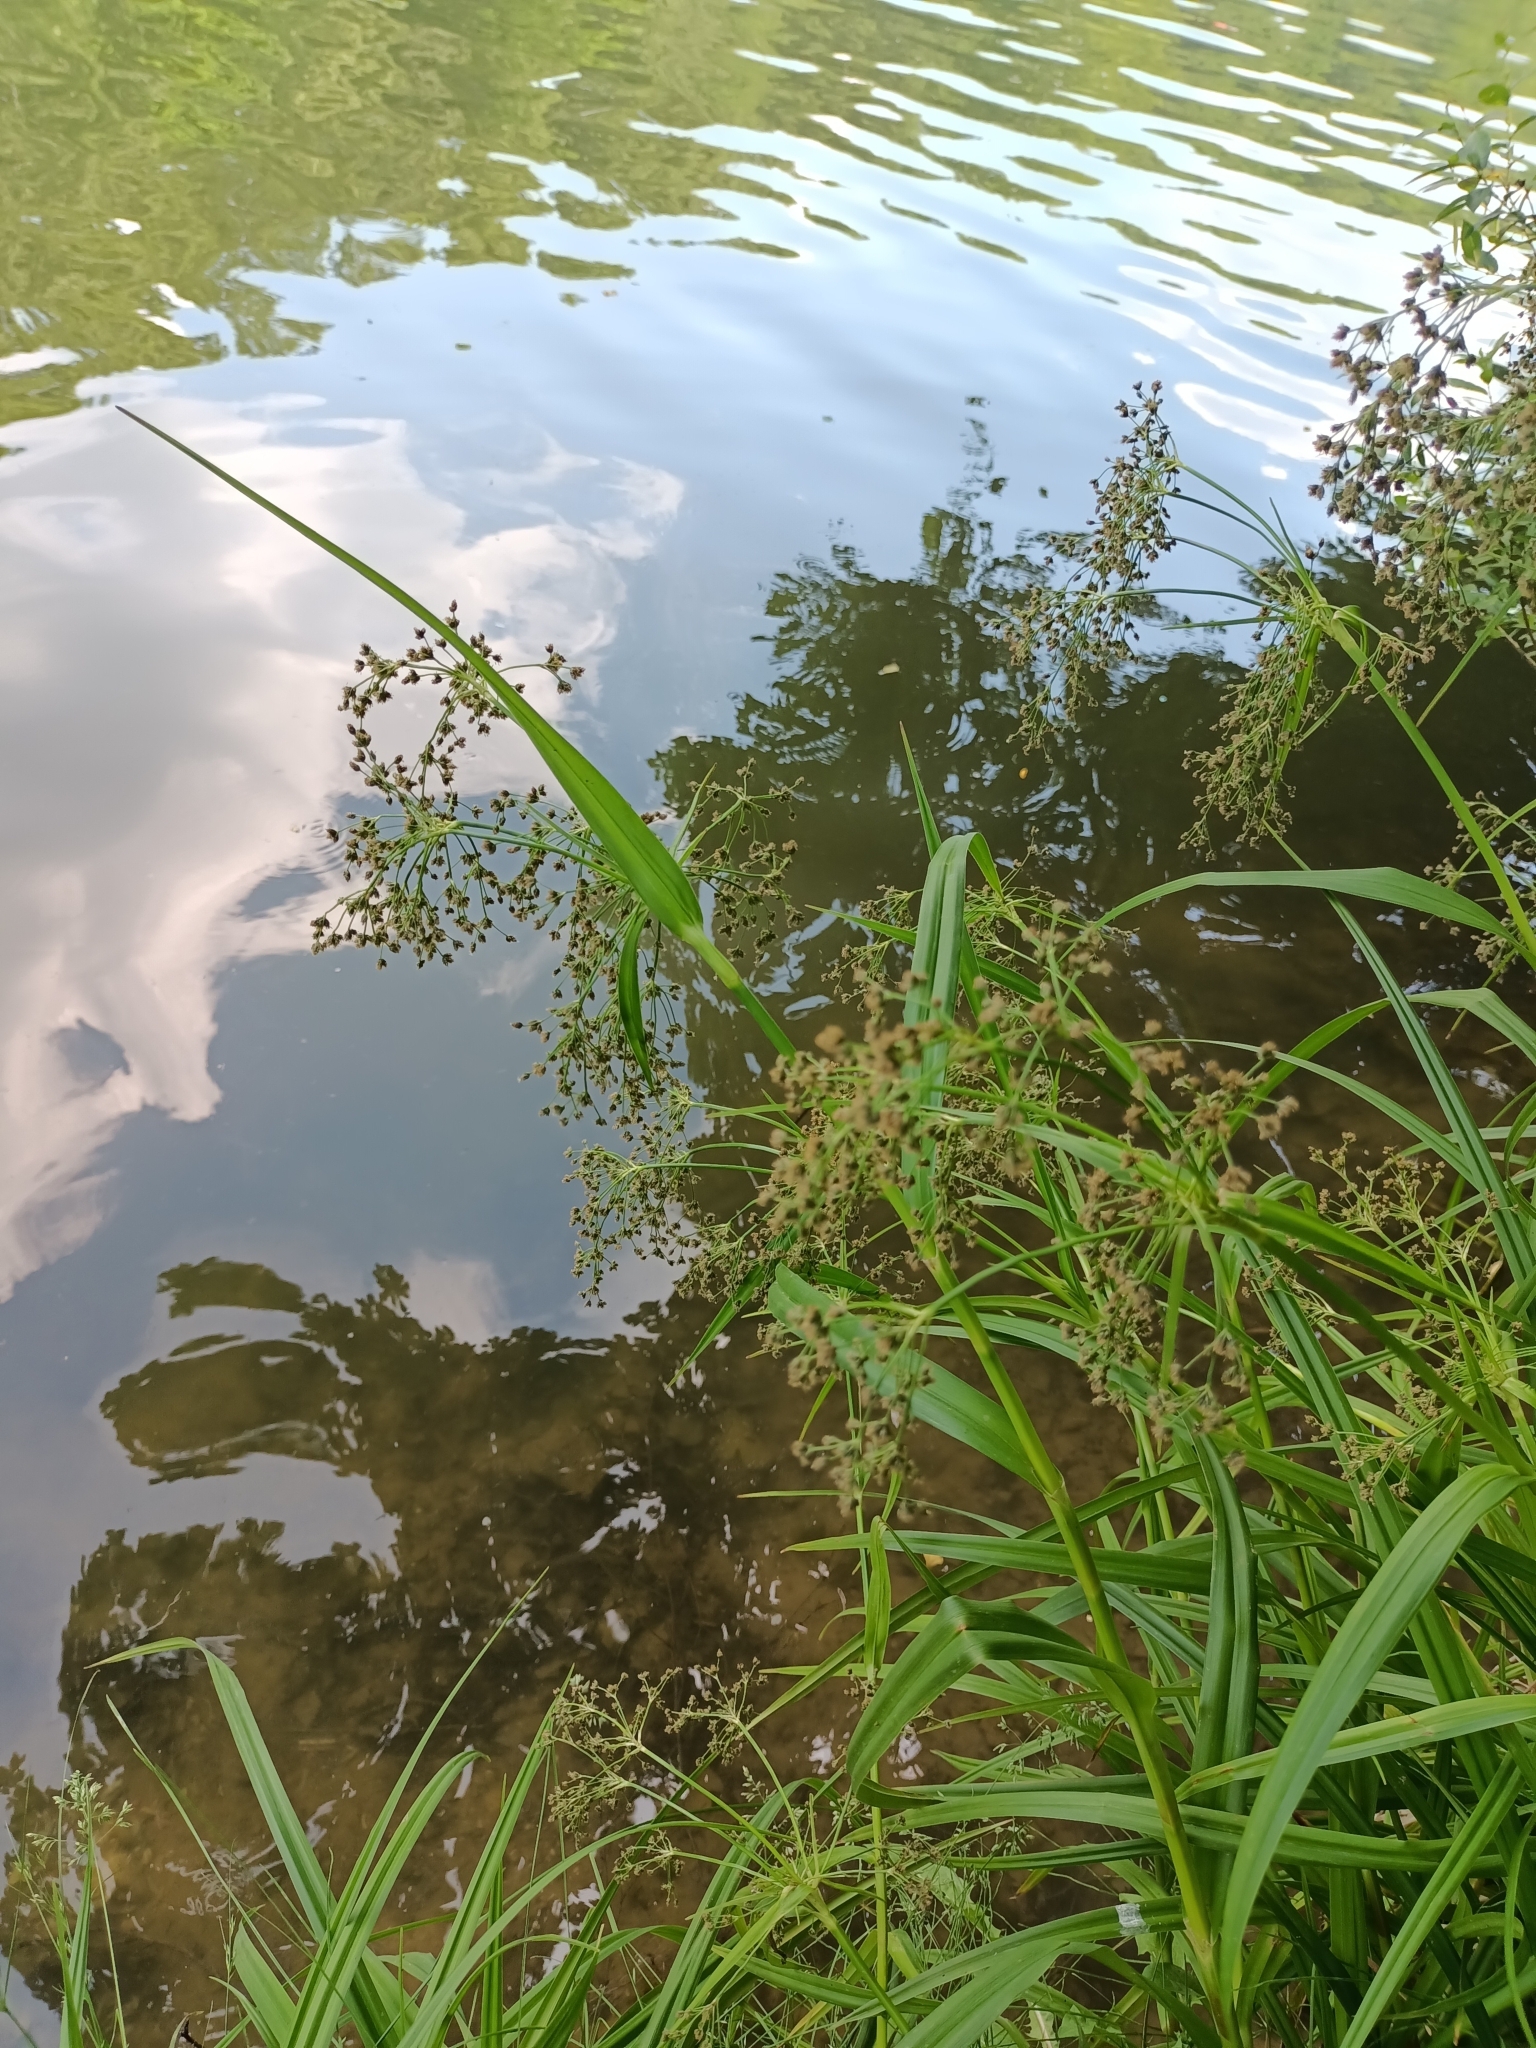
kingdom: Plantae
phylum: Tracheophyta
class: Liliopsida
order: Poales
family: Cyperaceae
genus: Scirpus
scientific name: Scirpus sylvaticus
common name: Wood club-rush
